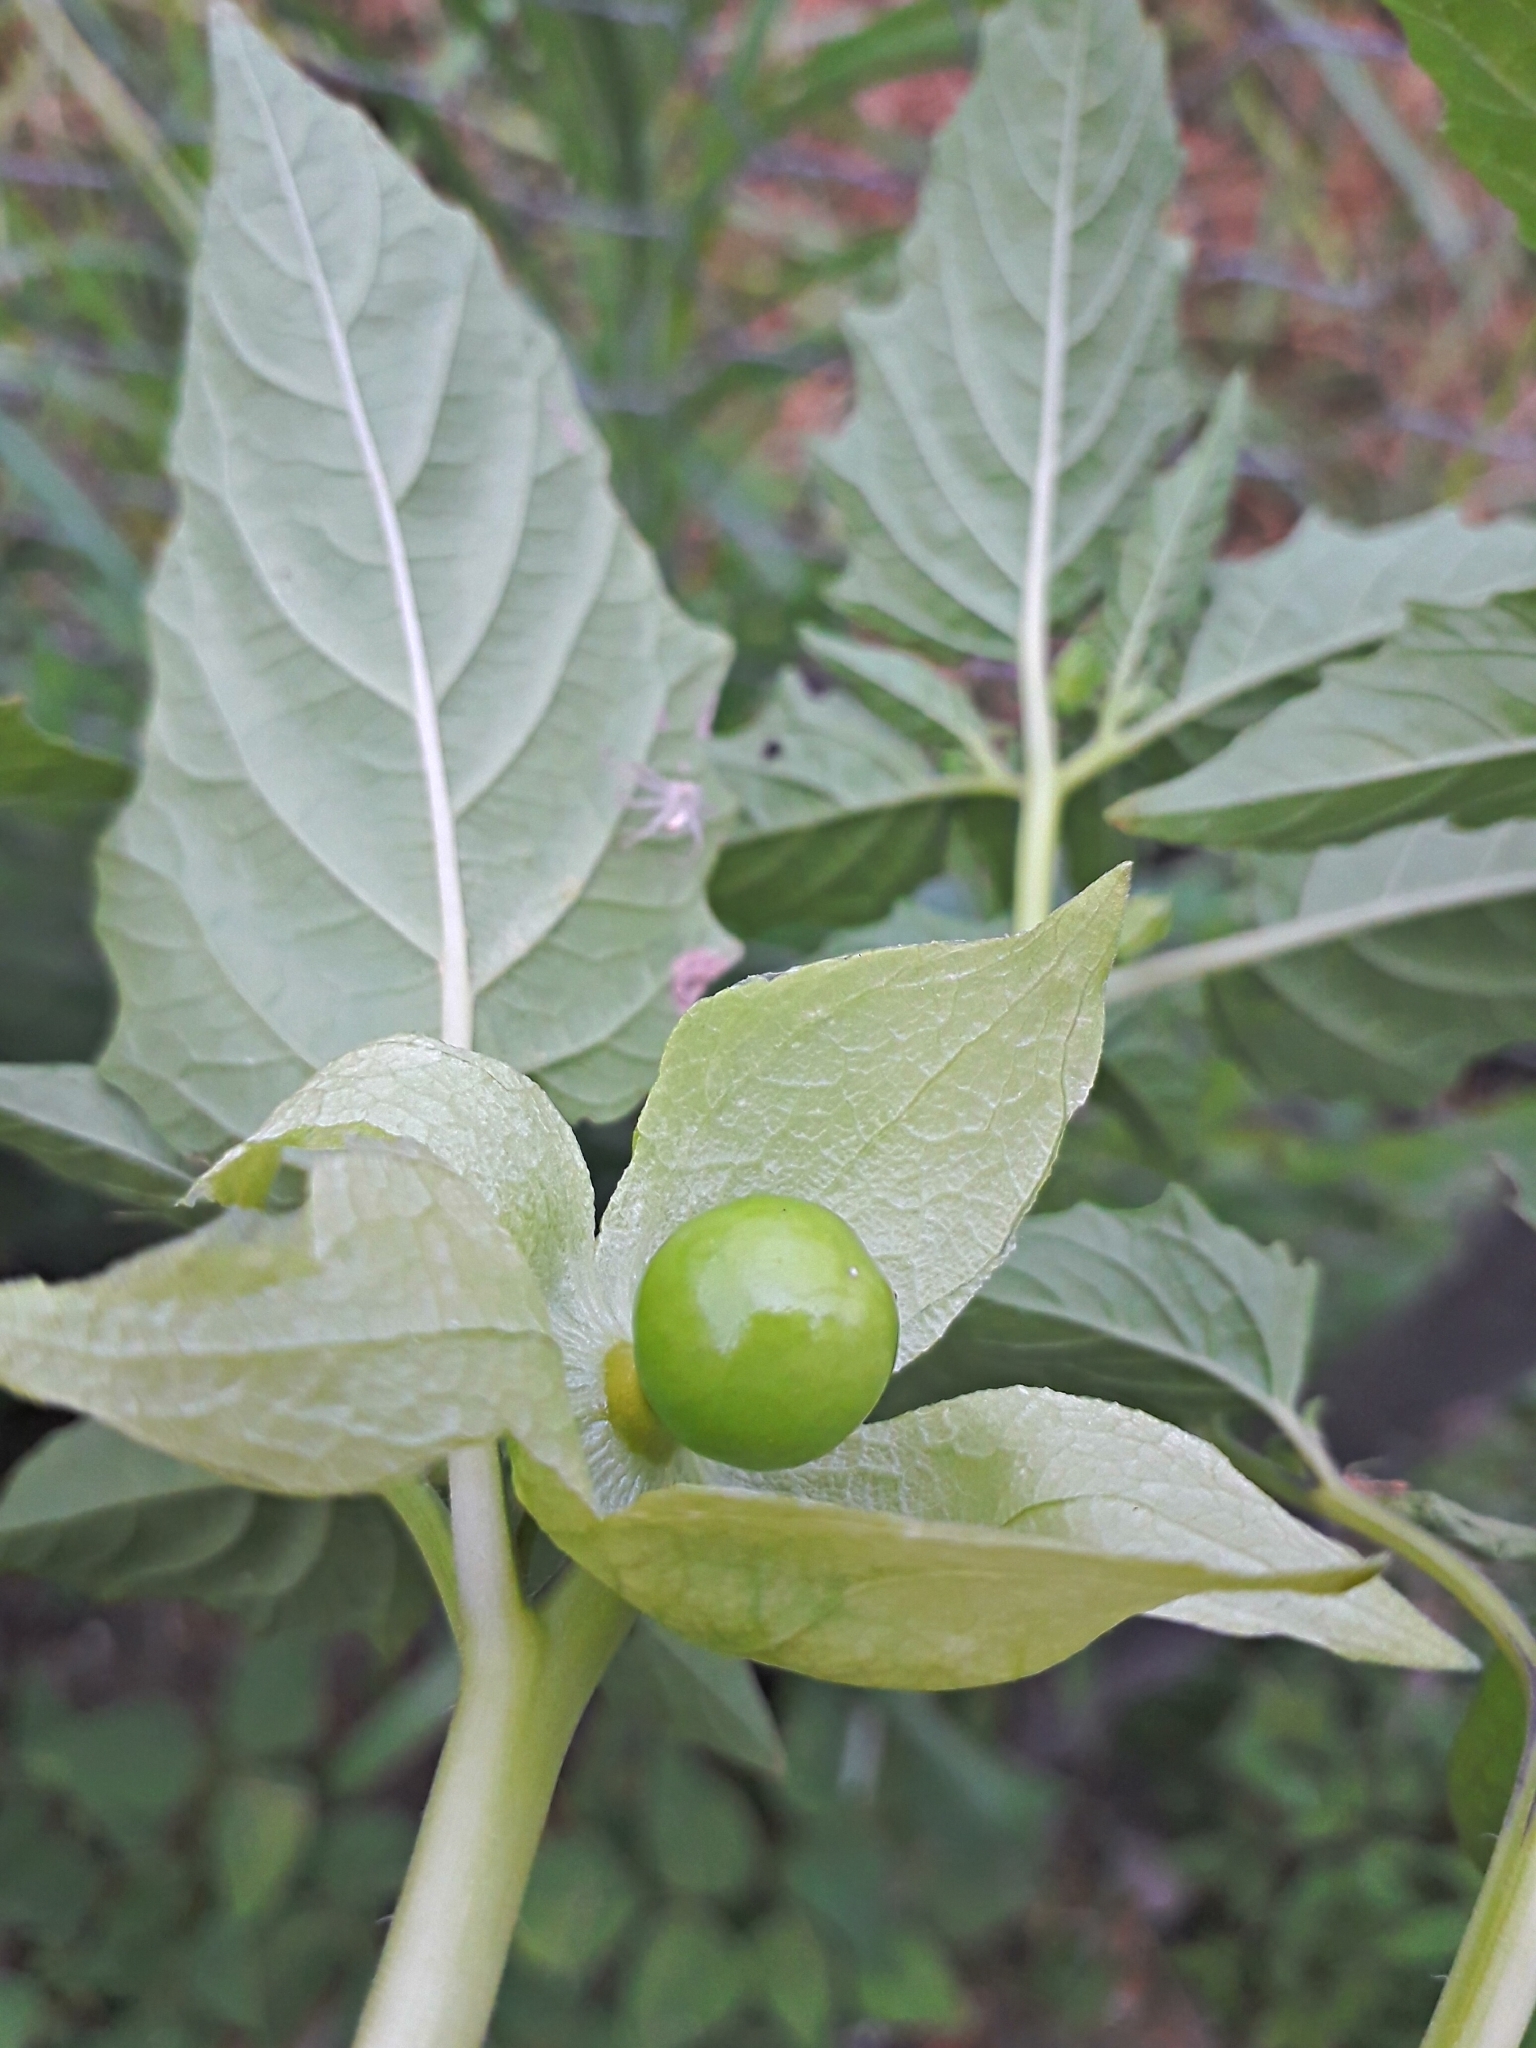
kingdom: Plantae
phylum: Tracheophyta
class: Magnoliopsida
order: Solanales
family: Solanaceae
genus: Physalis
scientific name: Physalis philadelphica
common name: Husk-tomato
